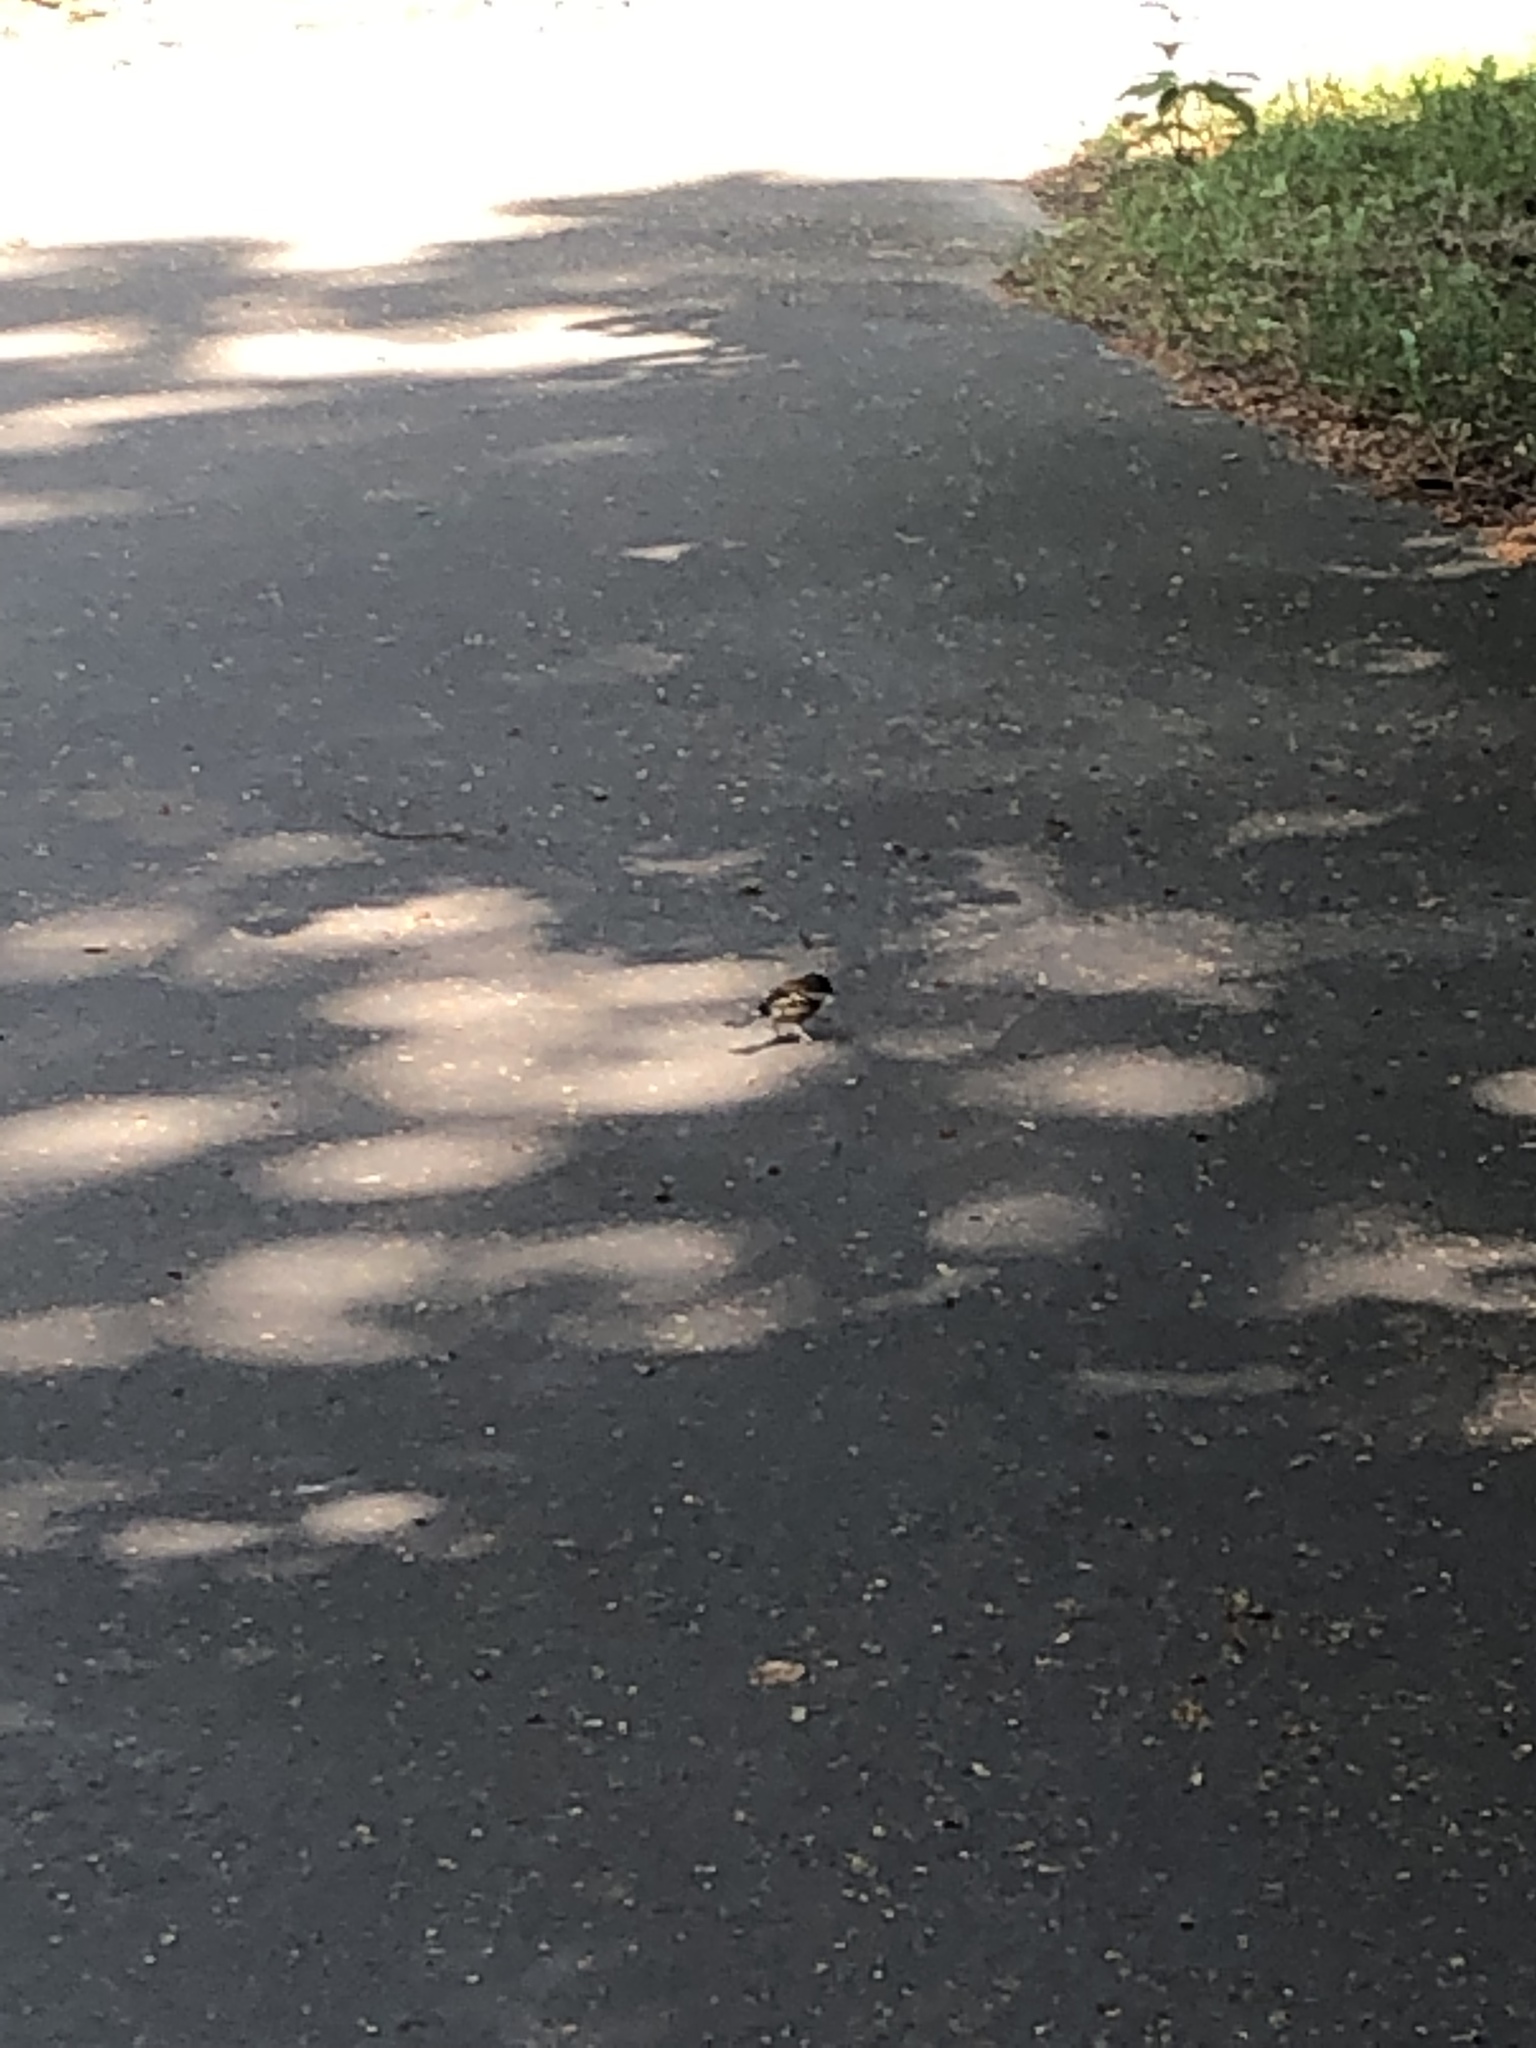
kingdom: Animalia
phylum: Chordata
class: Aves
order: Passeriformes
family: Fringillidae
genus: Fringilla
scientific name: Fringilla coelebs
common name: Common chaffinch
